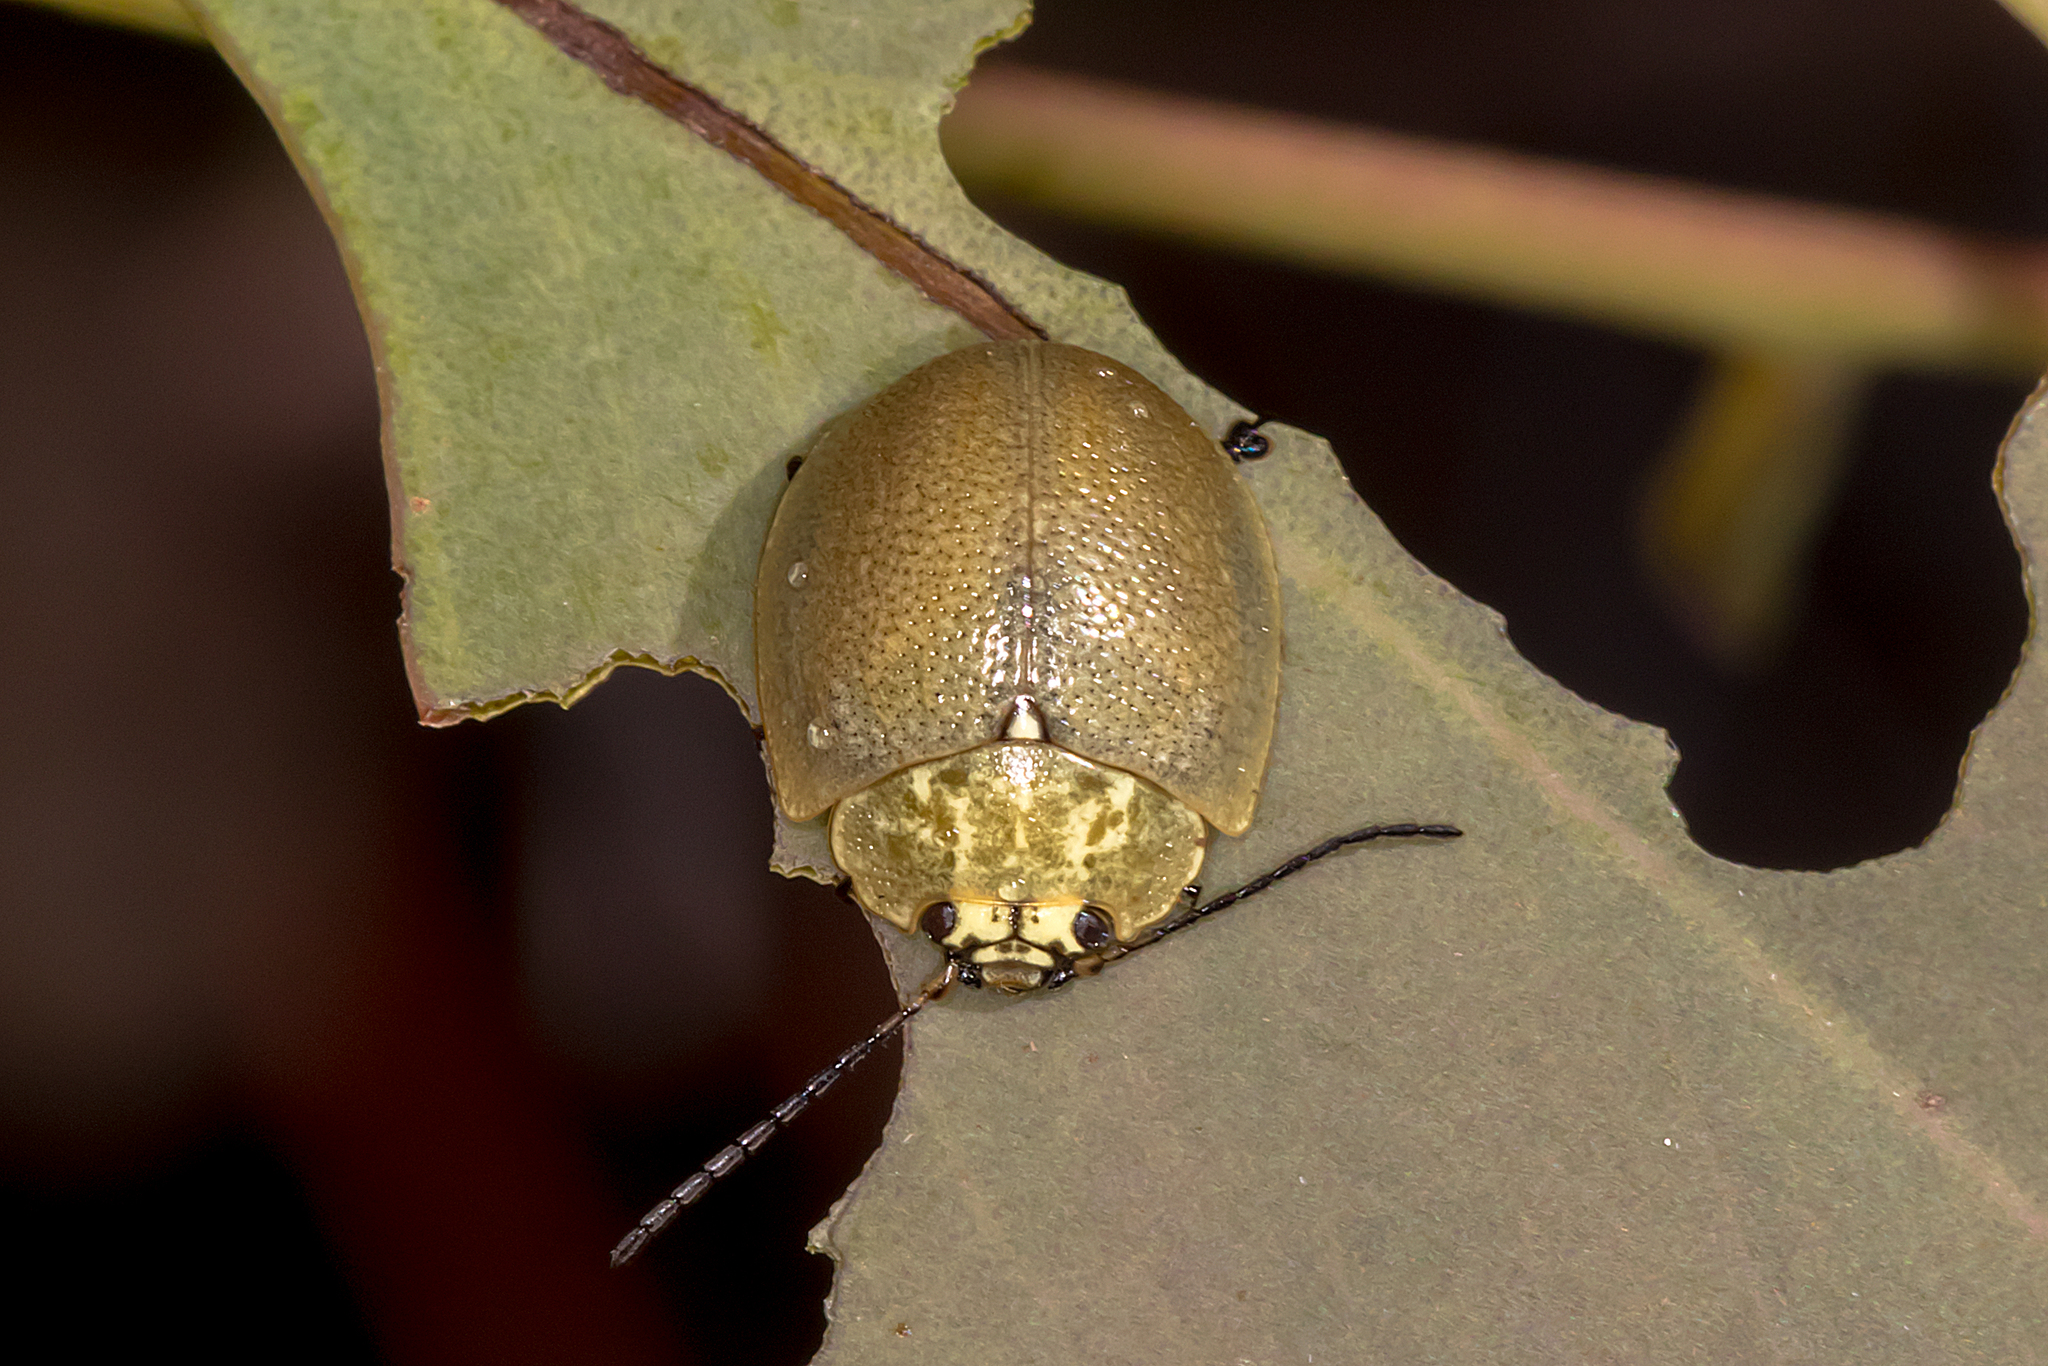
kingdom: Animalia
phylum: Arthropoda
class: Insecta
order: Coleoptera
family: Chrysomelidae
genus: Paropsis
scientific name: Paropsis
